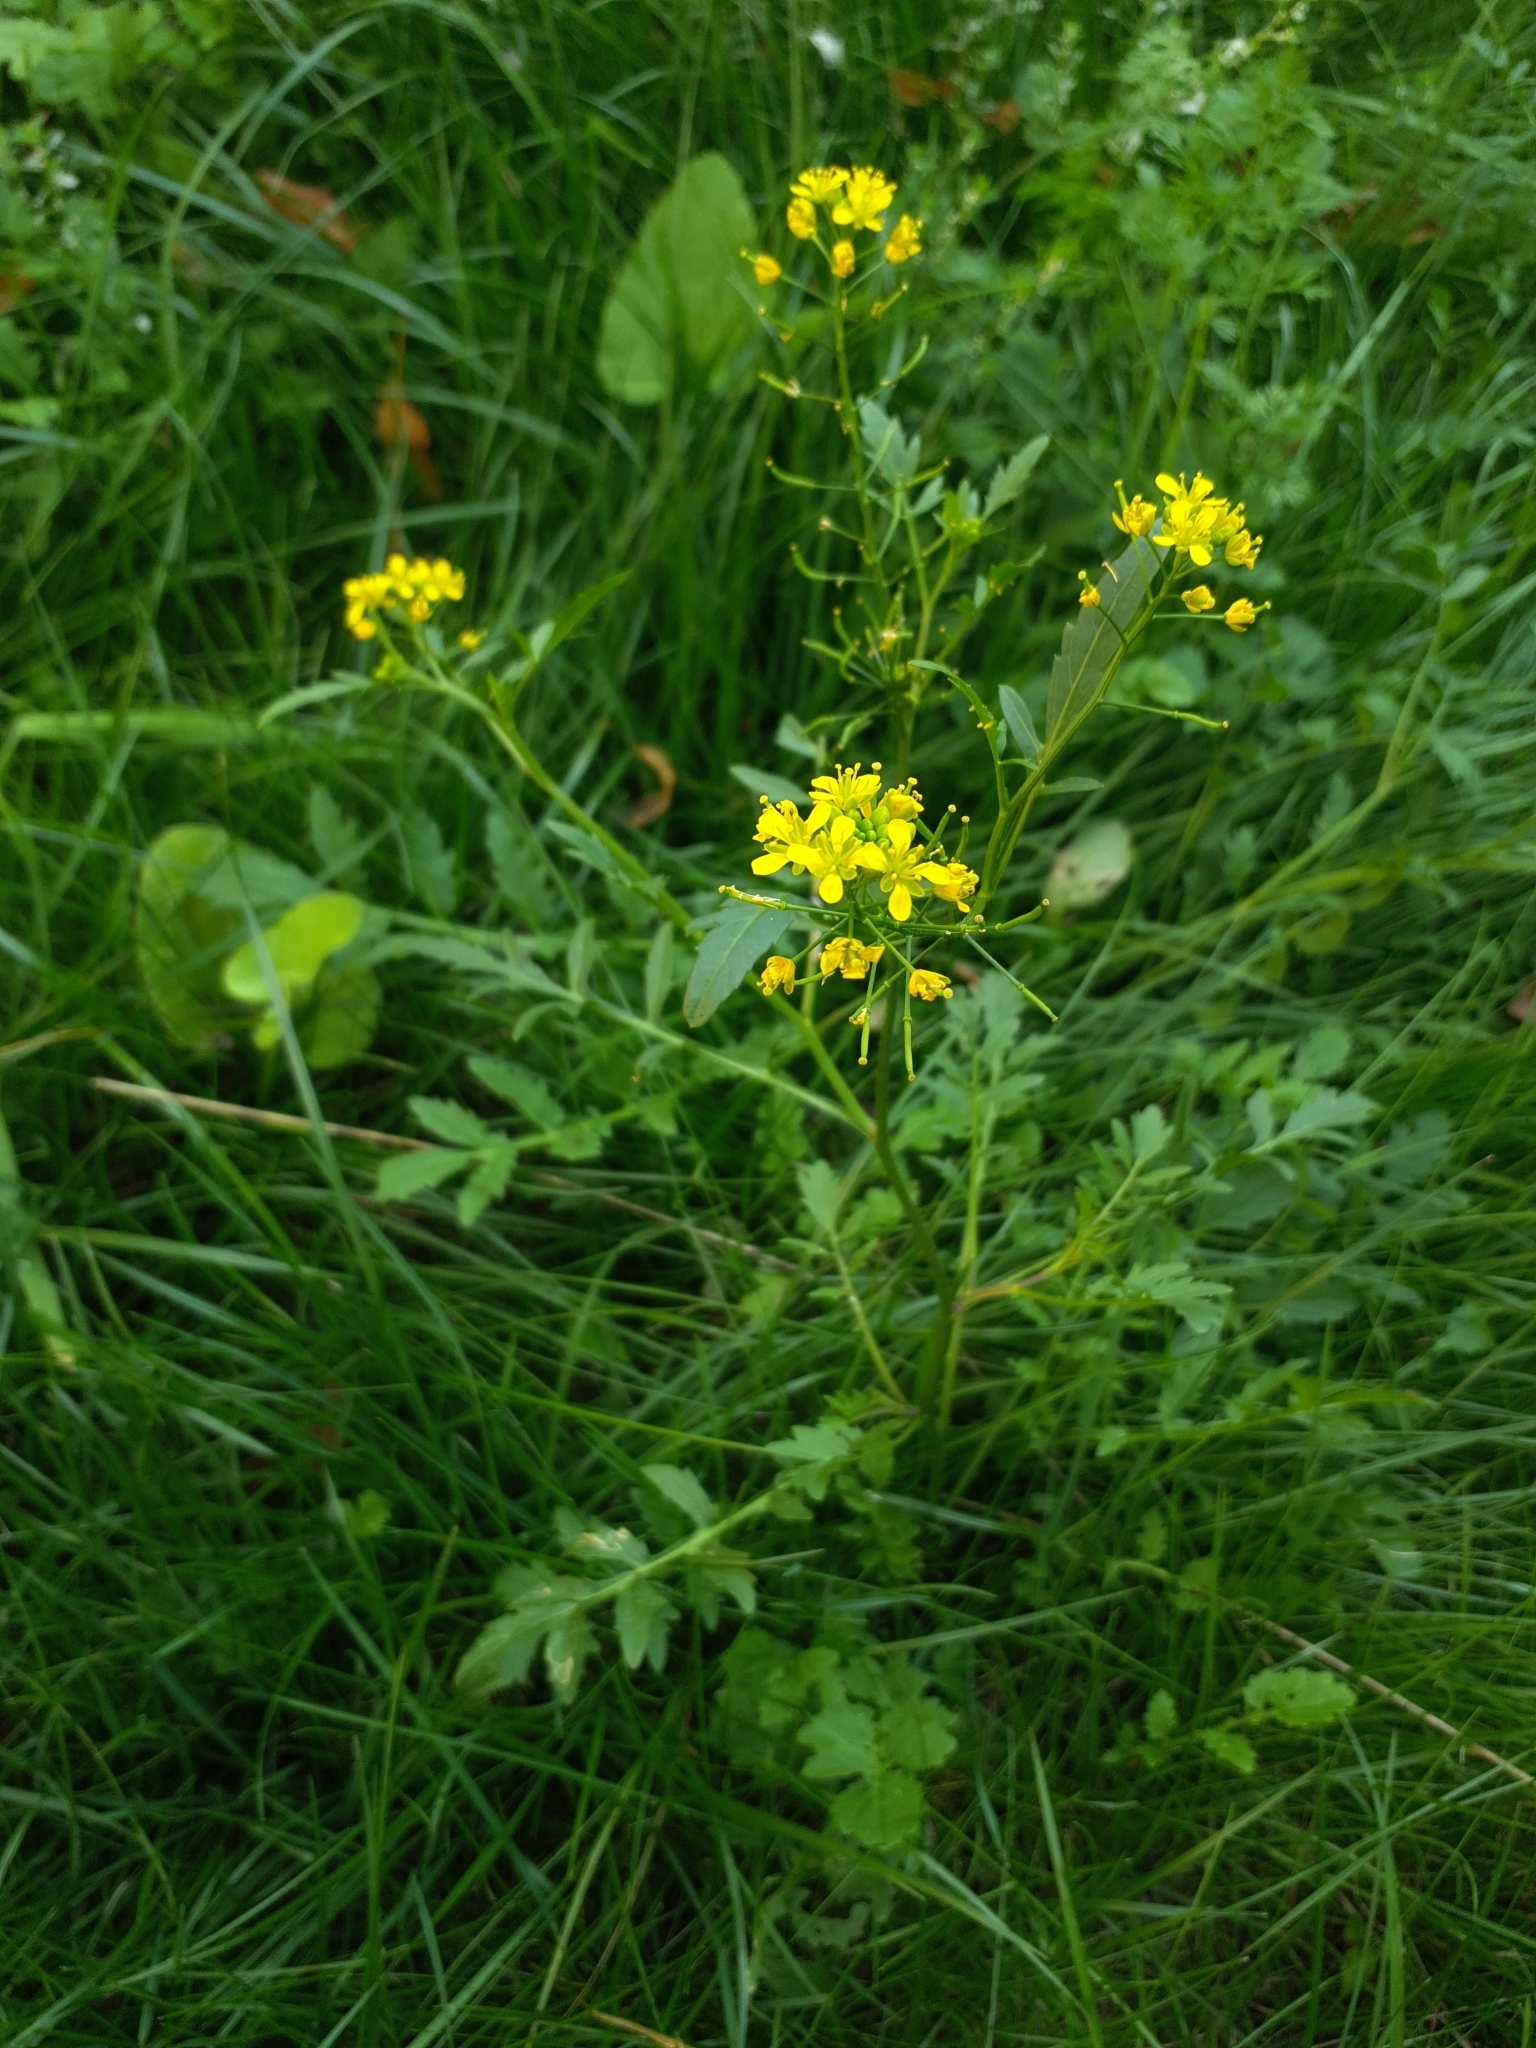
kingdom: Plantae
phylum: Tracheophyta
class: Magnoliopsida
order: Brassicales
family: Brassicaceae
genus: Rorippa
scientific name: Rorippa sylvestris
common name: Creeping yellowcress
